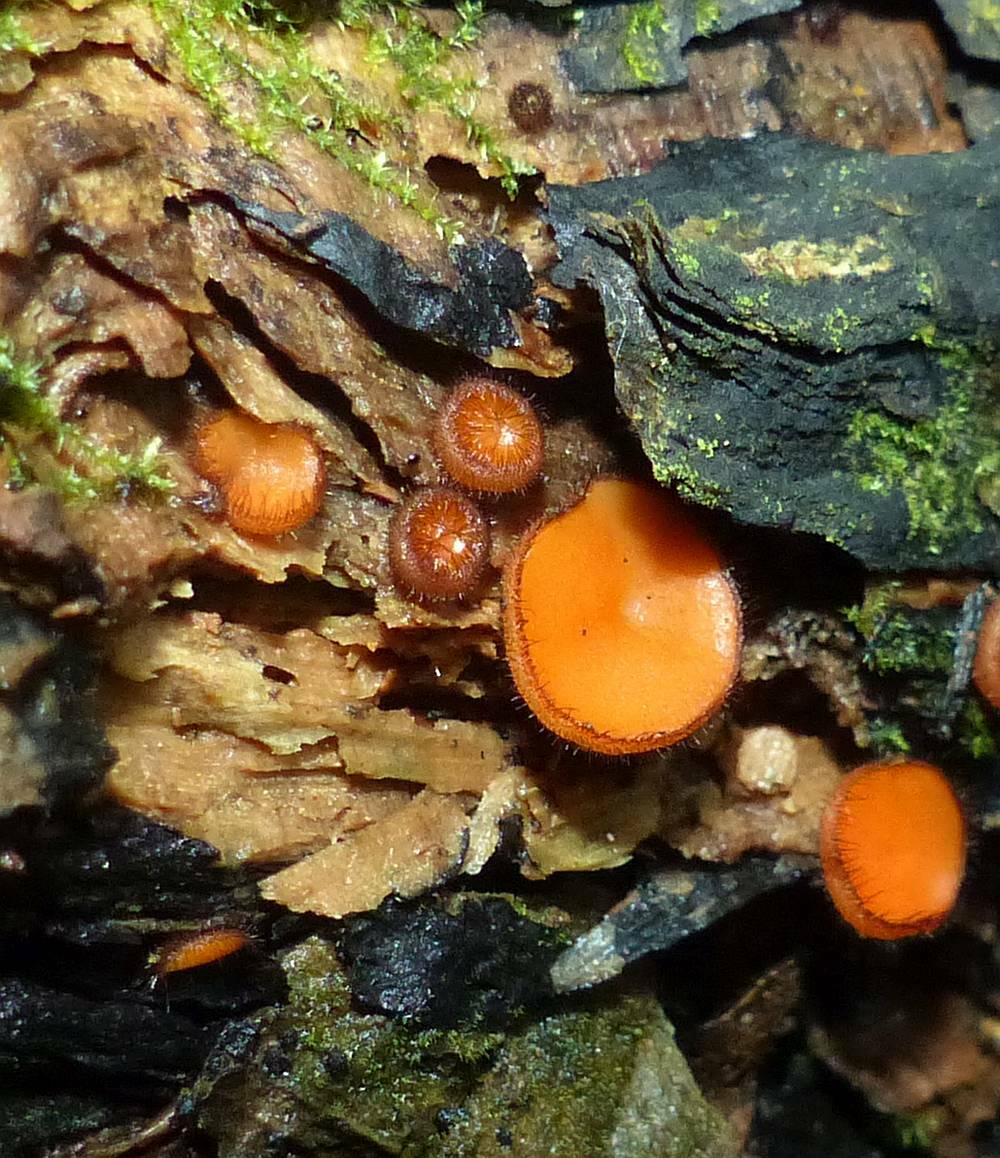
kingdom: Fungi
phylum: Ascomycota
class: Pezizomycetes
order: Pezizales
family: Pyronemataceae
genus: Scutellinia
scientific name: Scutellinia
